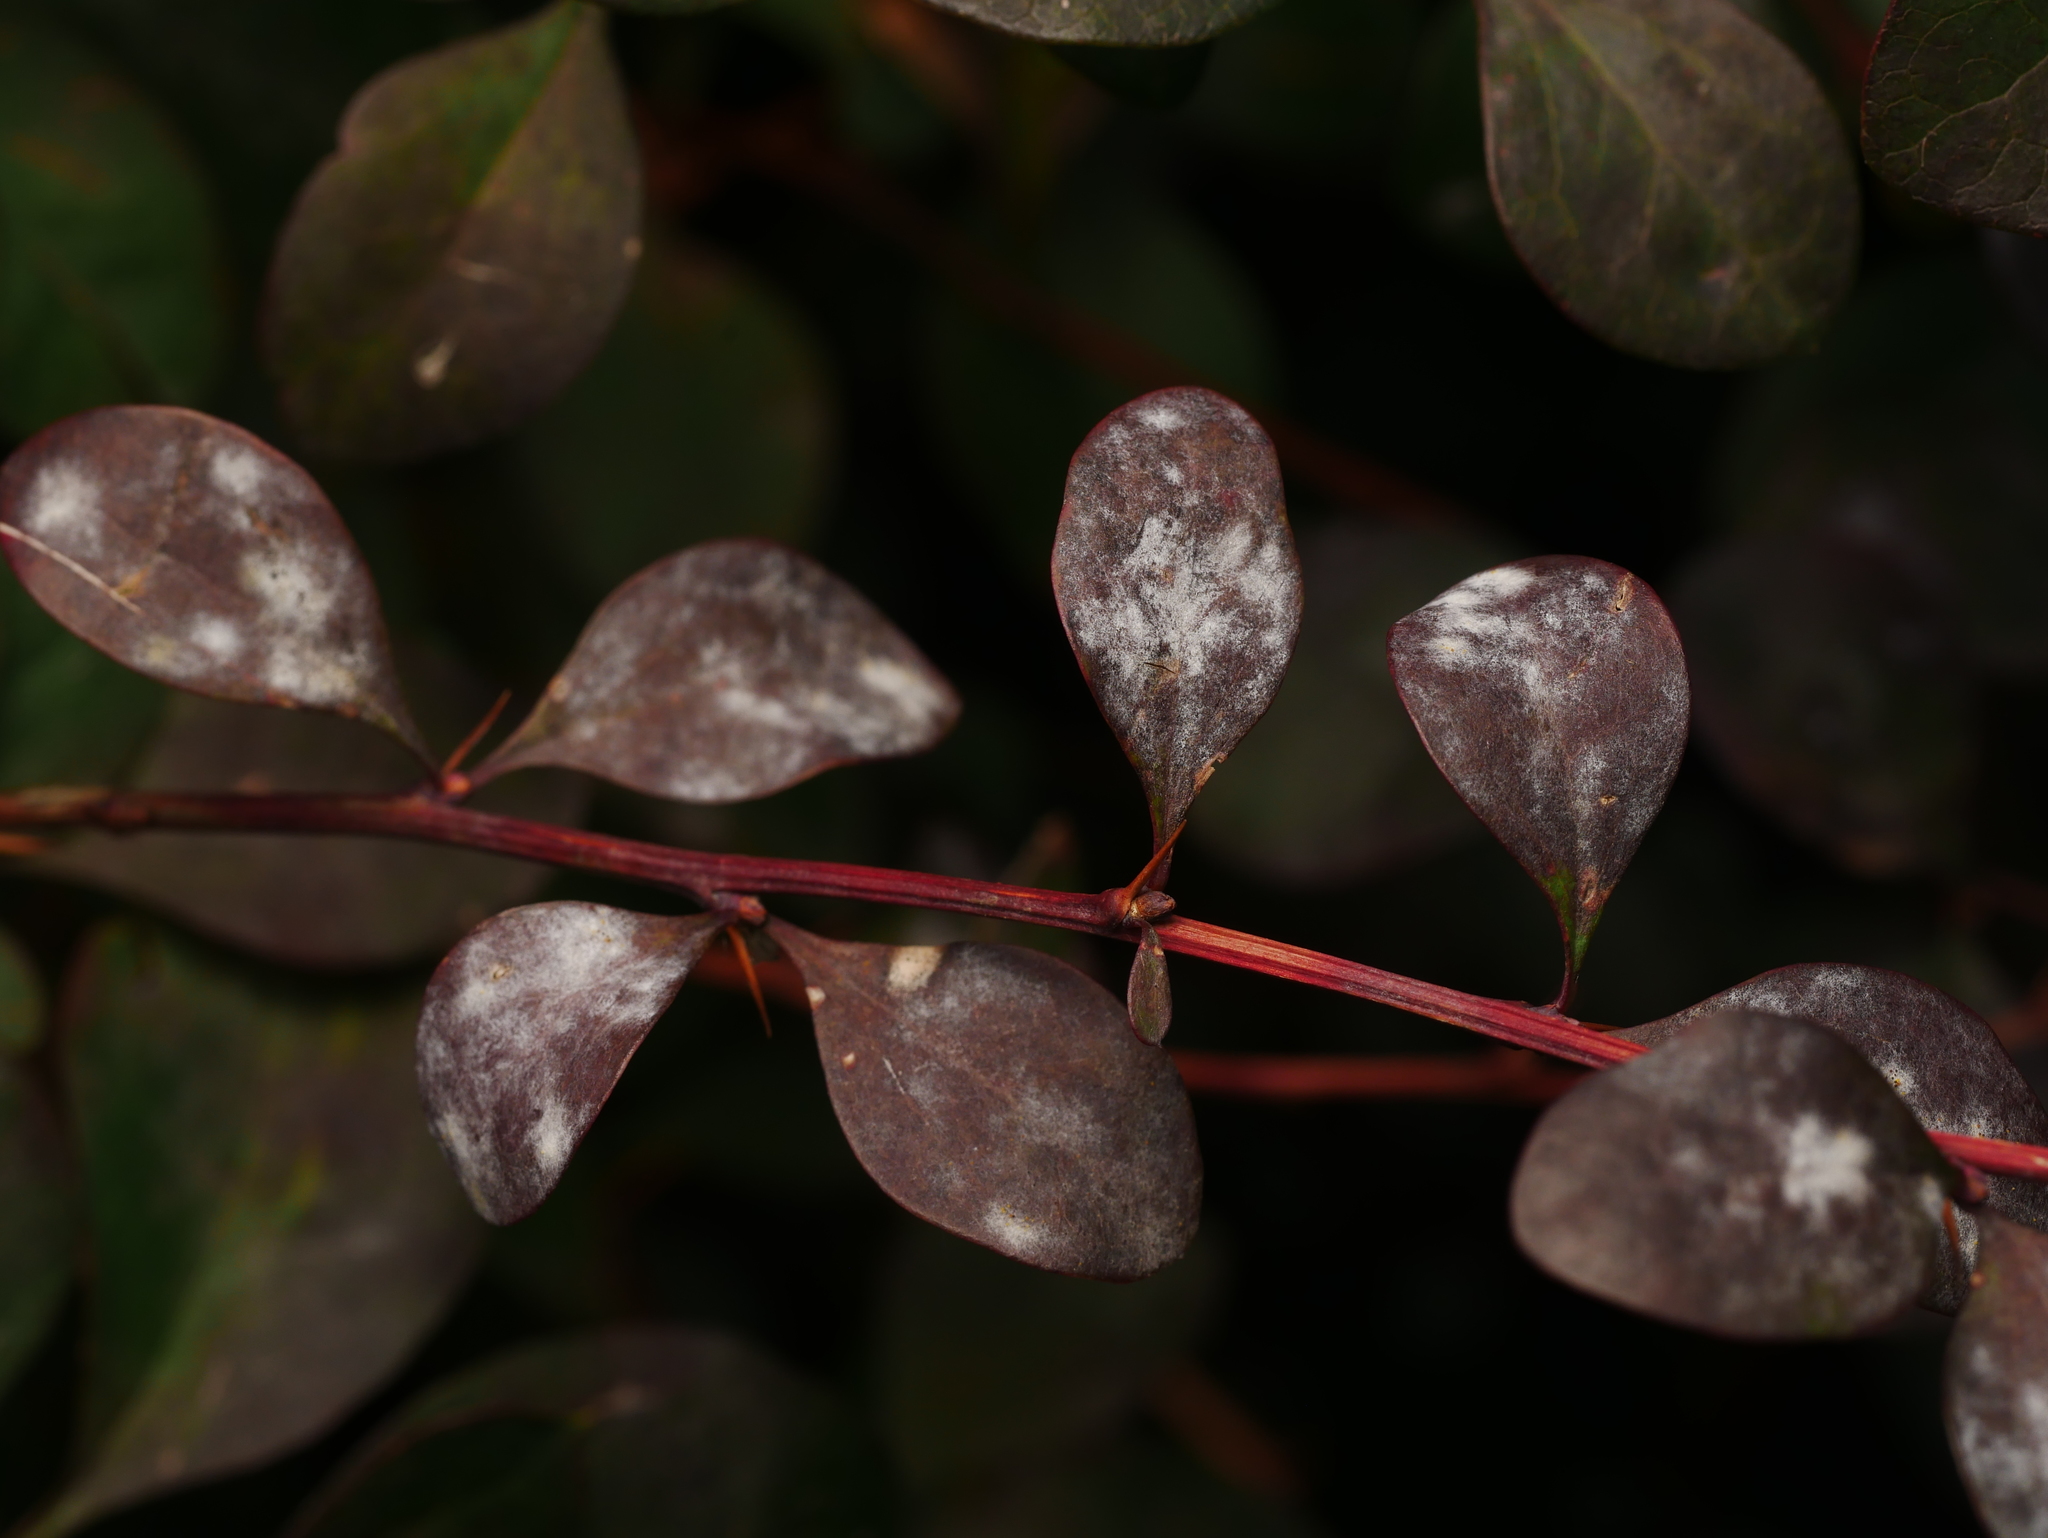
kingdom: Fungi
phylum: Ascomycota
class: Leotiomycetes
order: Helotiales
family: Erysiphaceae
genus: Erysiphe
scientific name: Erysiphe berberidis
